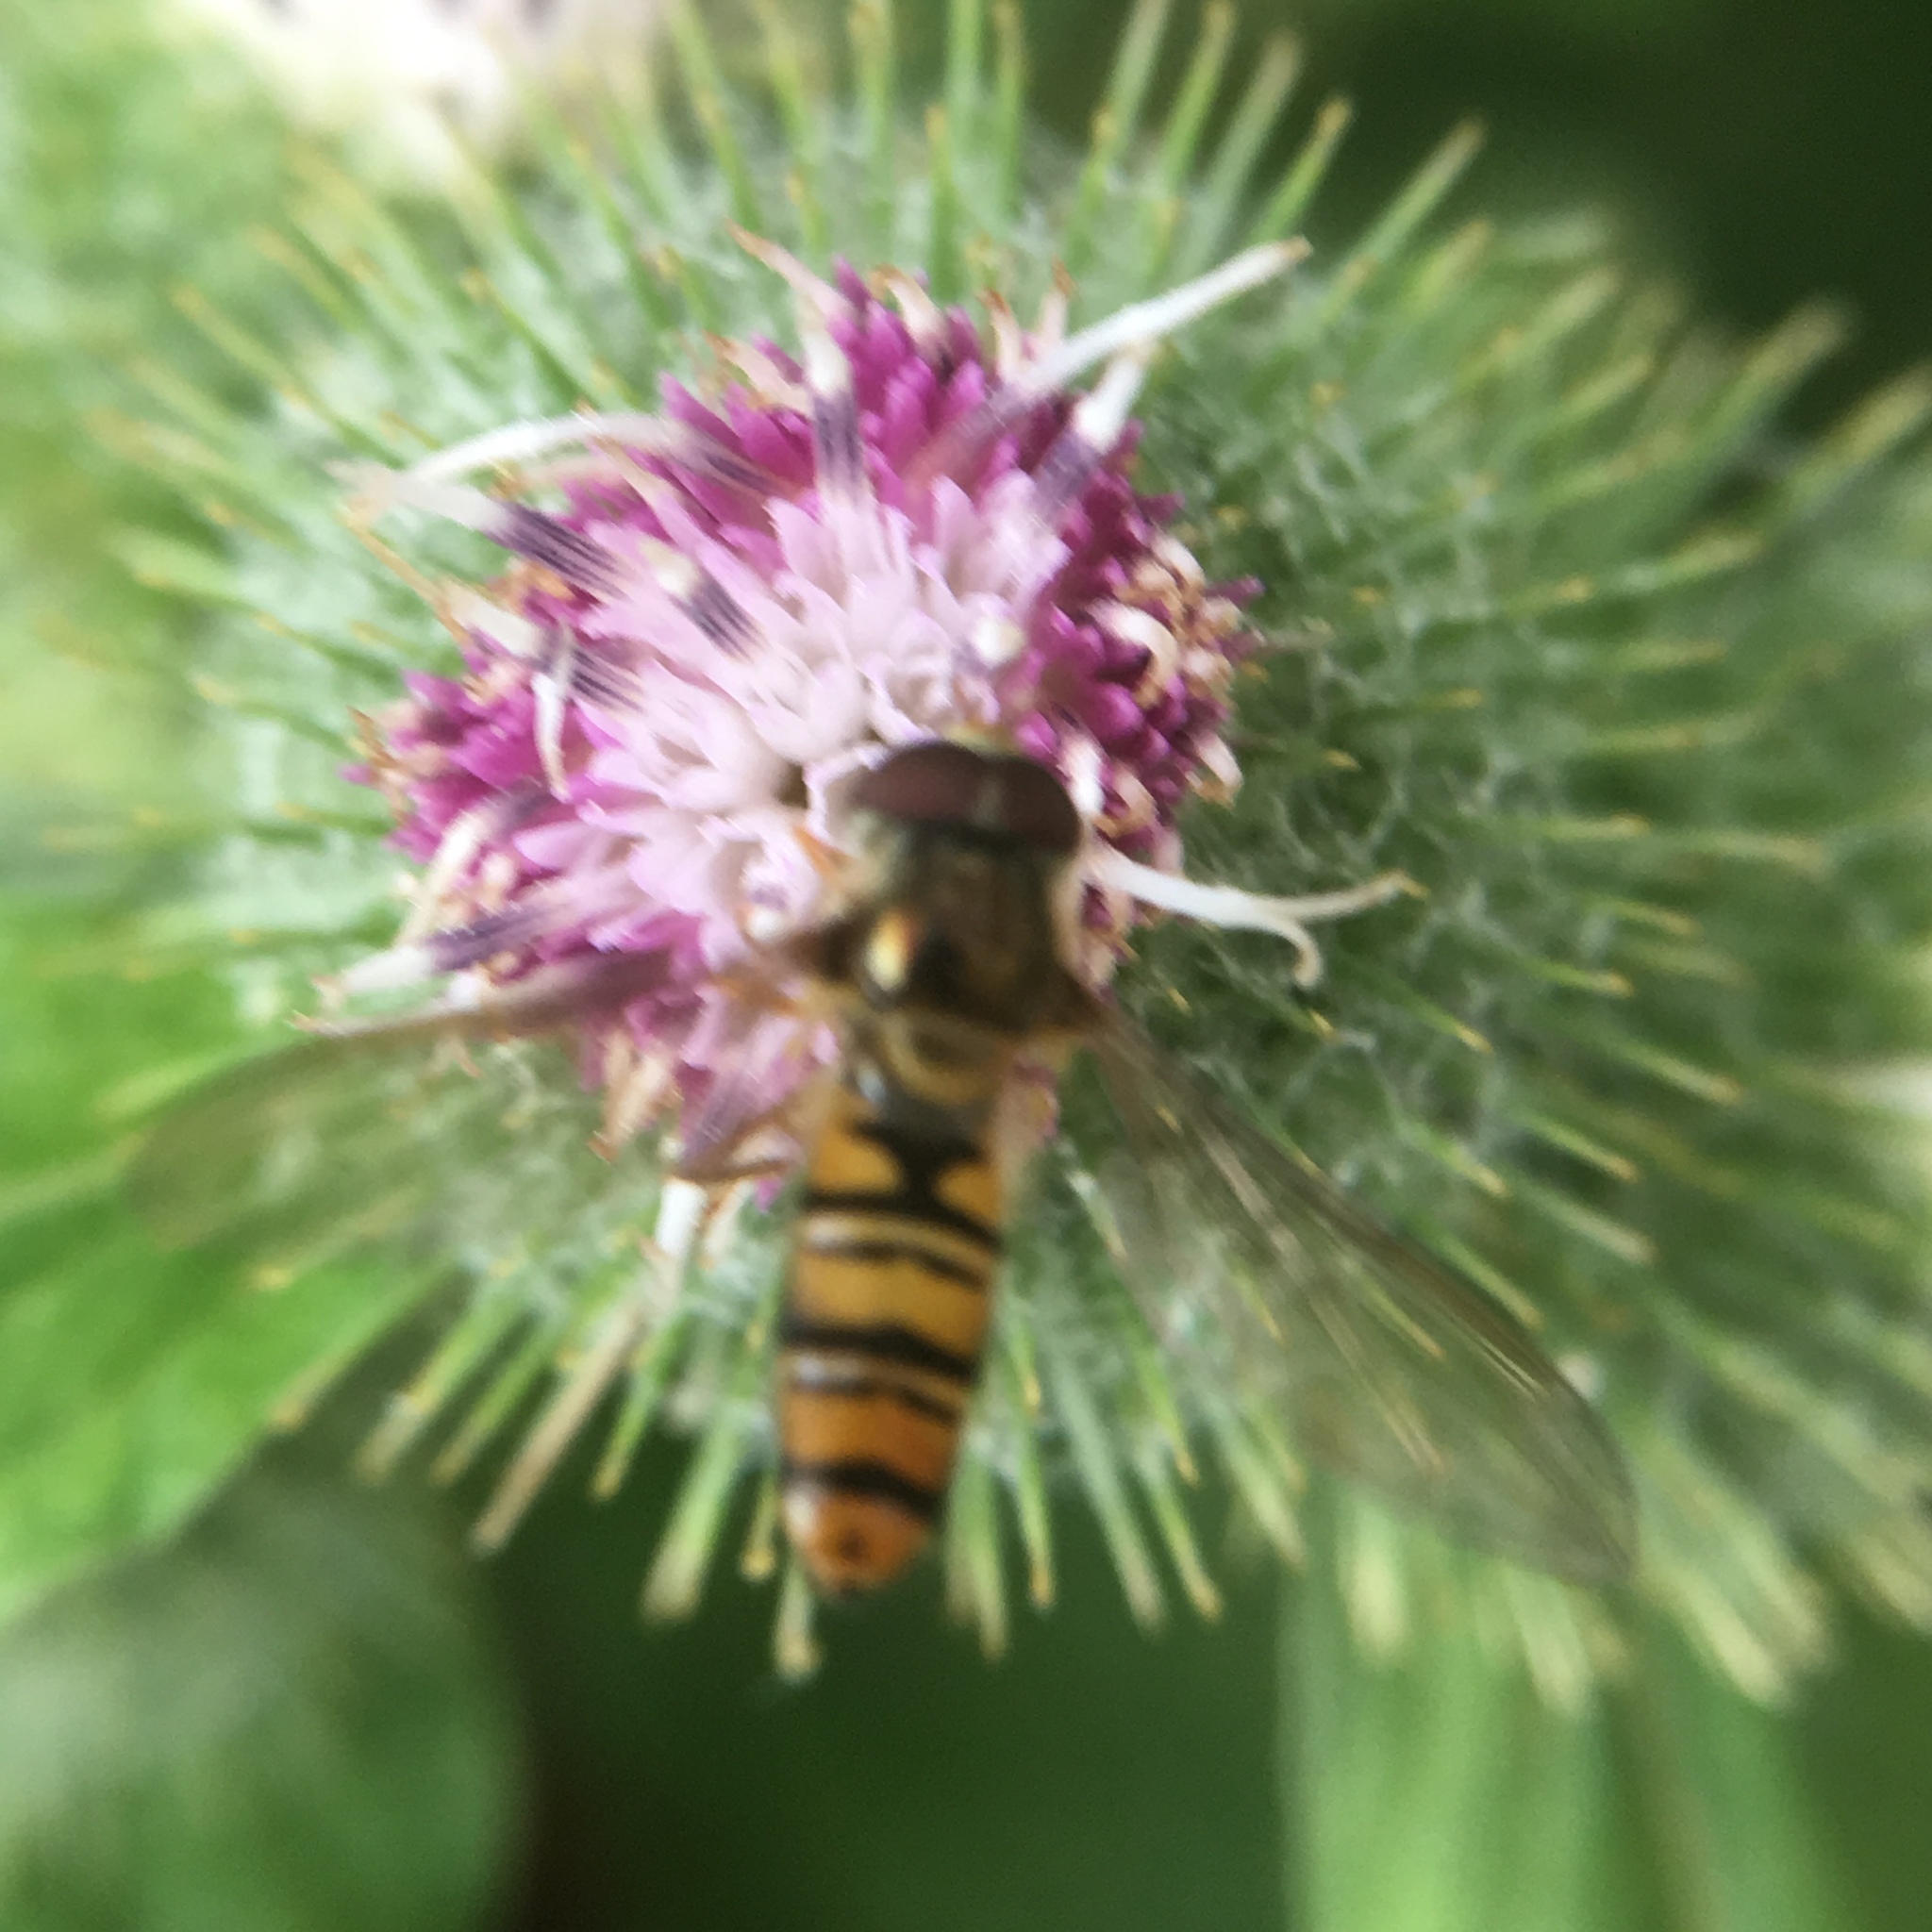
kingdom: Animalia
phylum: Arthropoda
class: Insecta
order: Diptera
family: Syrphidae
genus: Episyrphus
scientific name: Episyrphus balteatus
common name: Marmalade hoverfly
